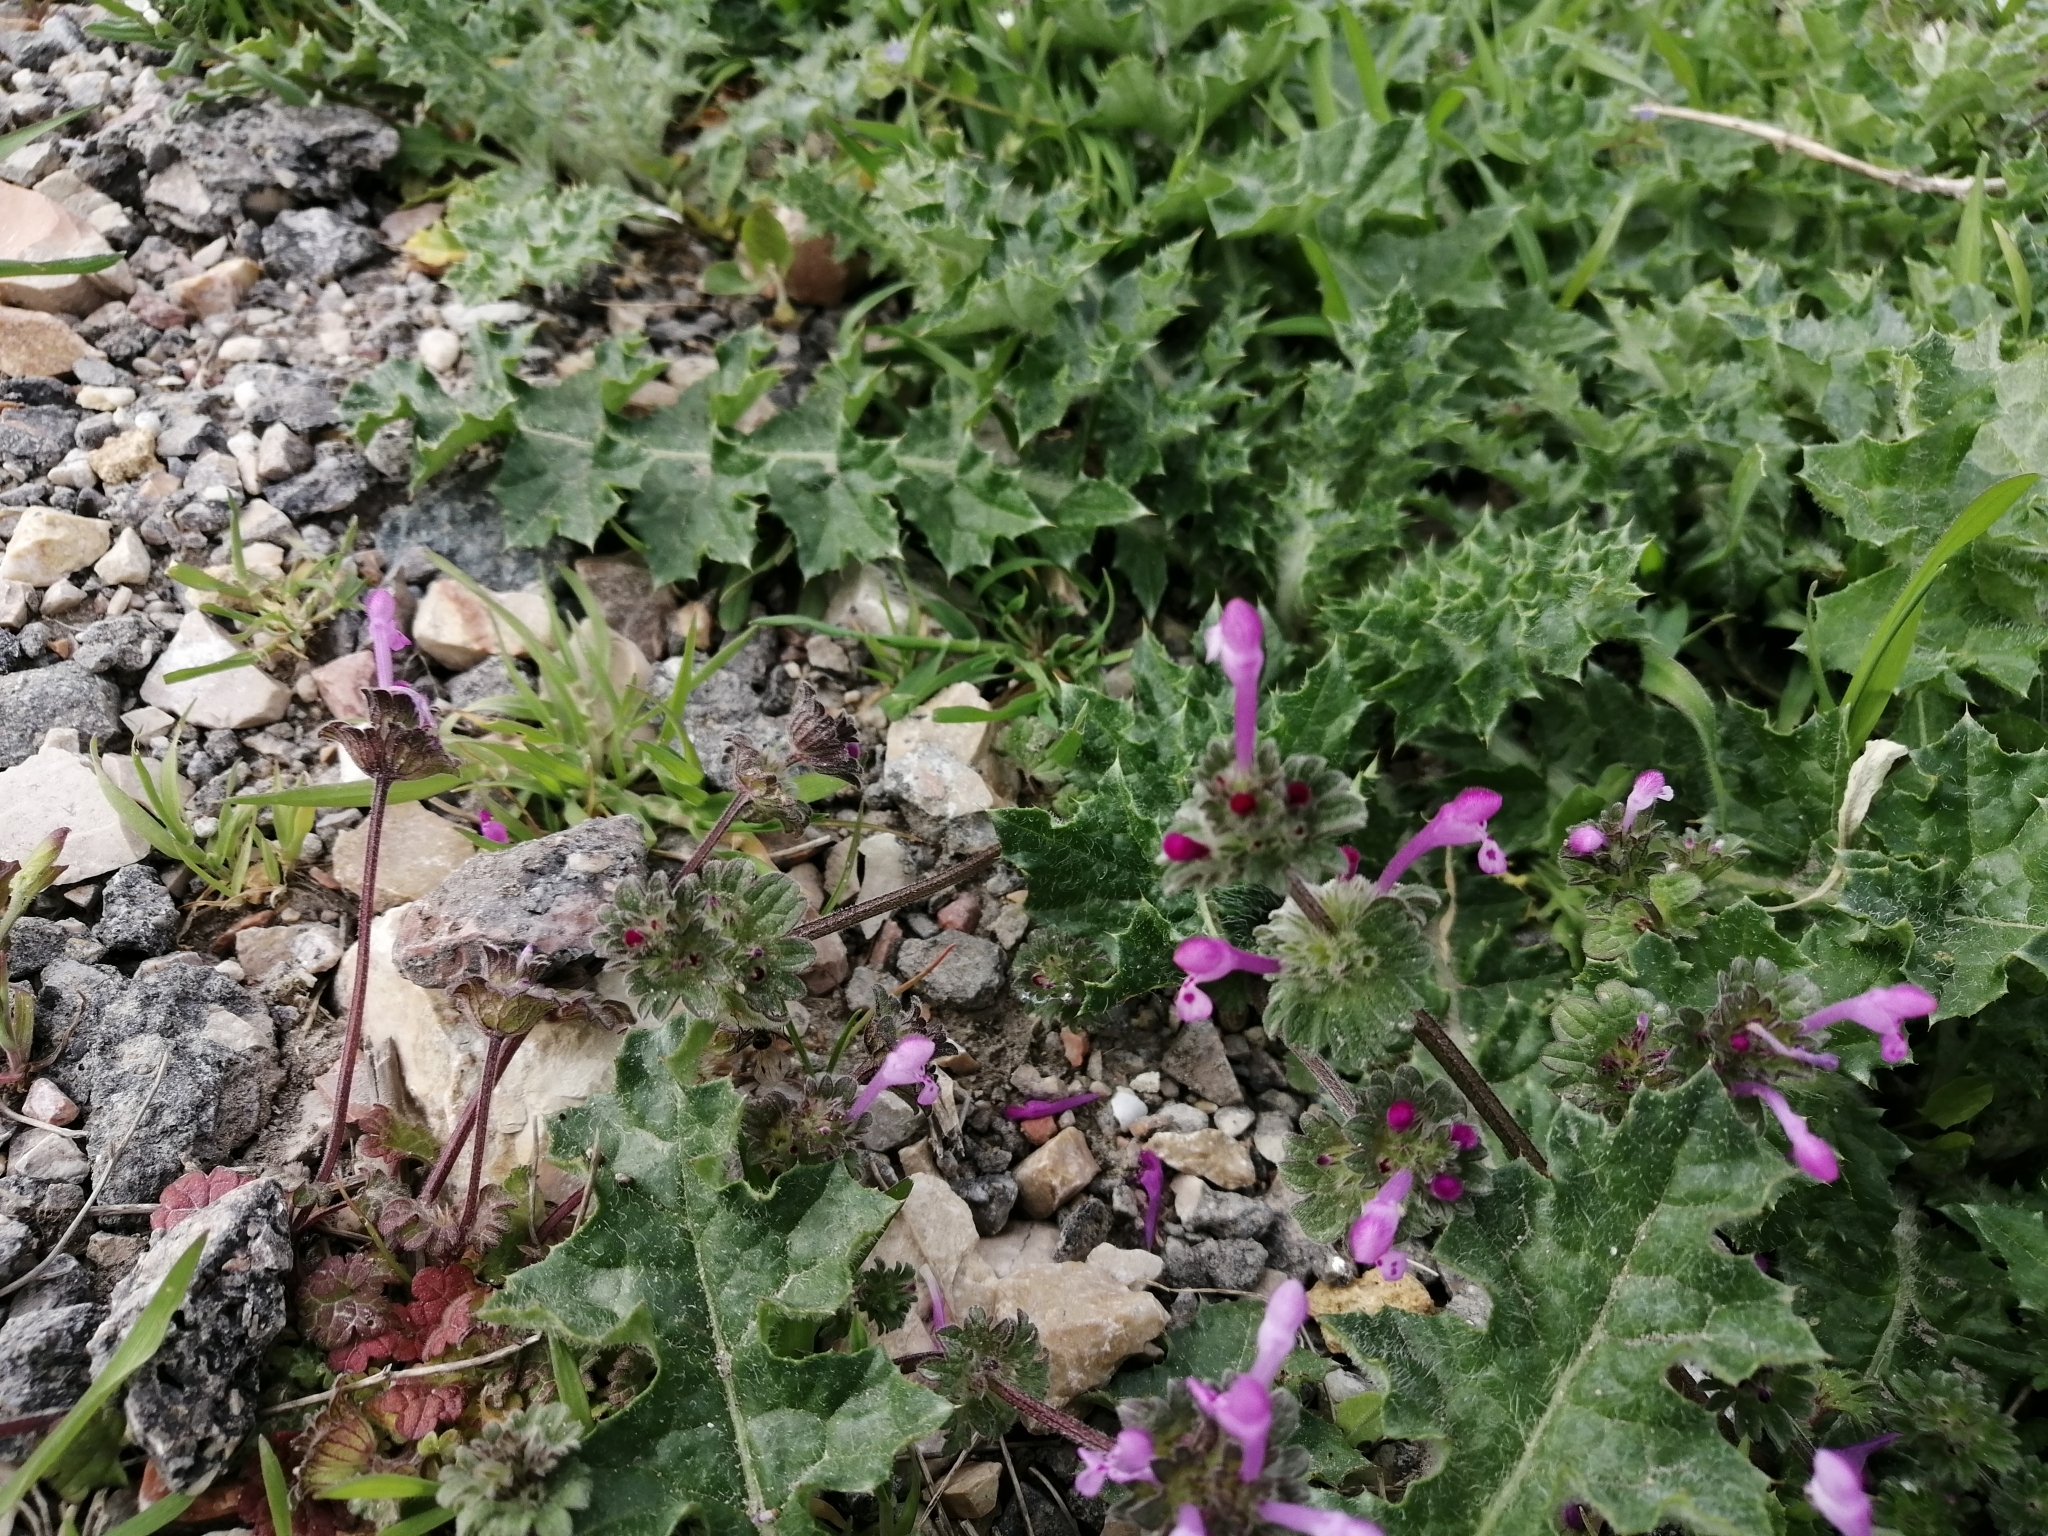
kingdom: Plantae
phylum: Tracheophyta
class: Magnoliopsida
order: Lamiales
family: Lamiaceae
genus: Lamium
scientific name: Lamium amplexicaule
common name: Henbit dead-nettle
